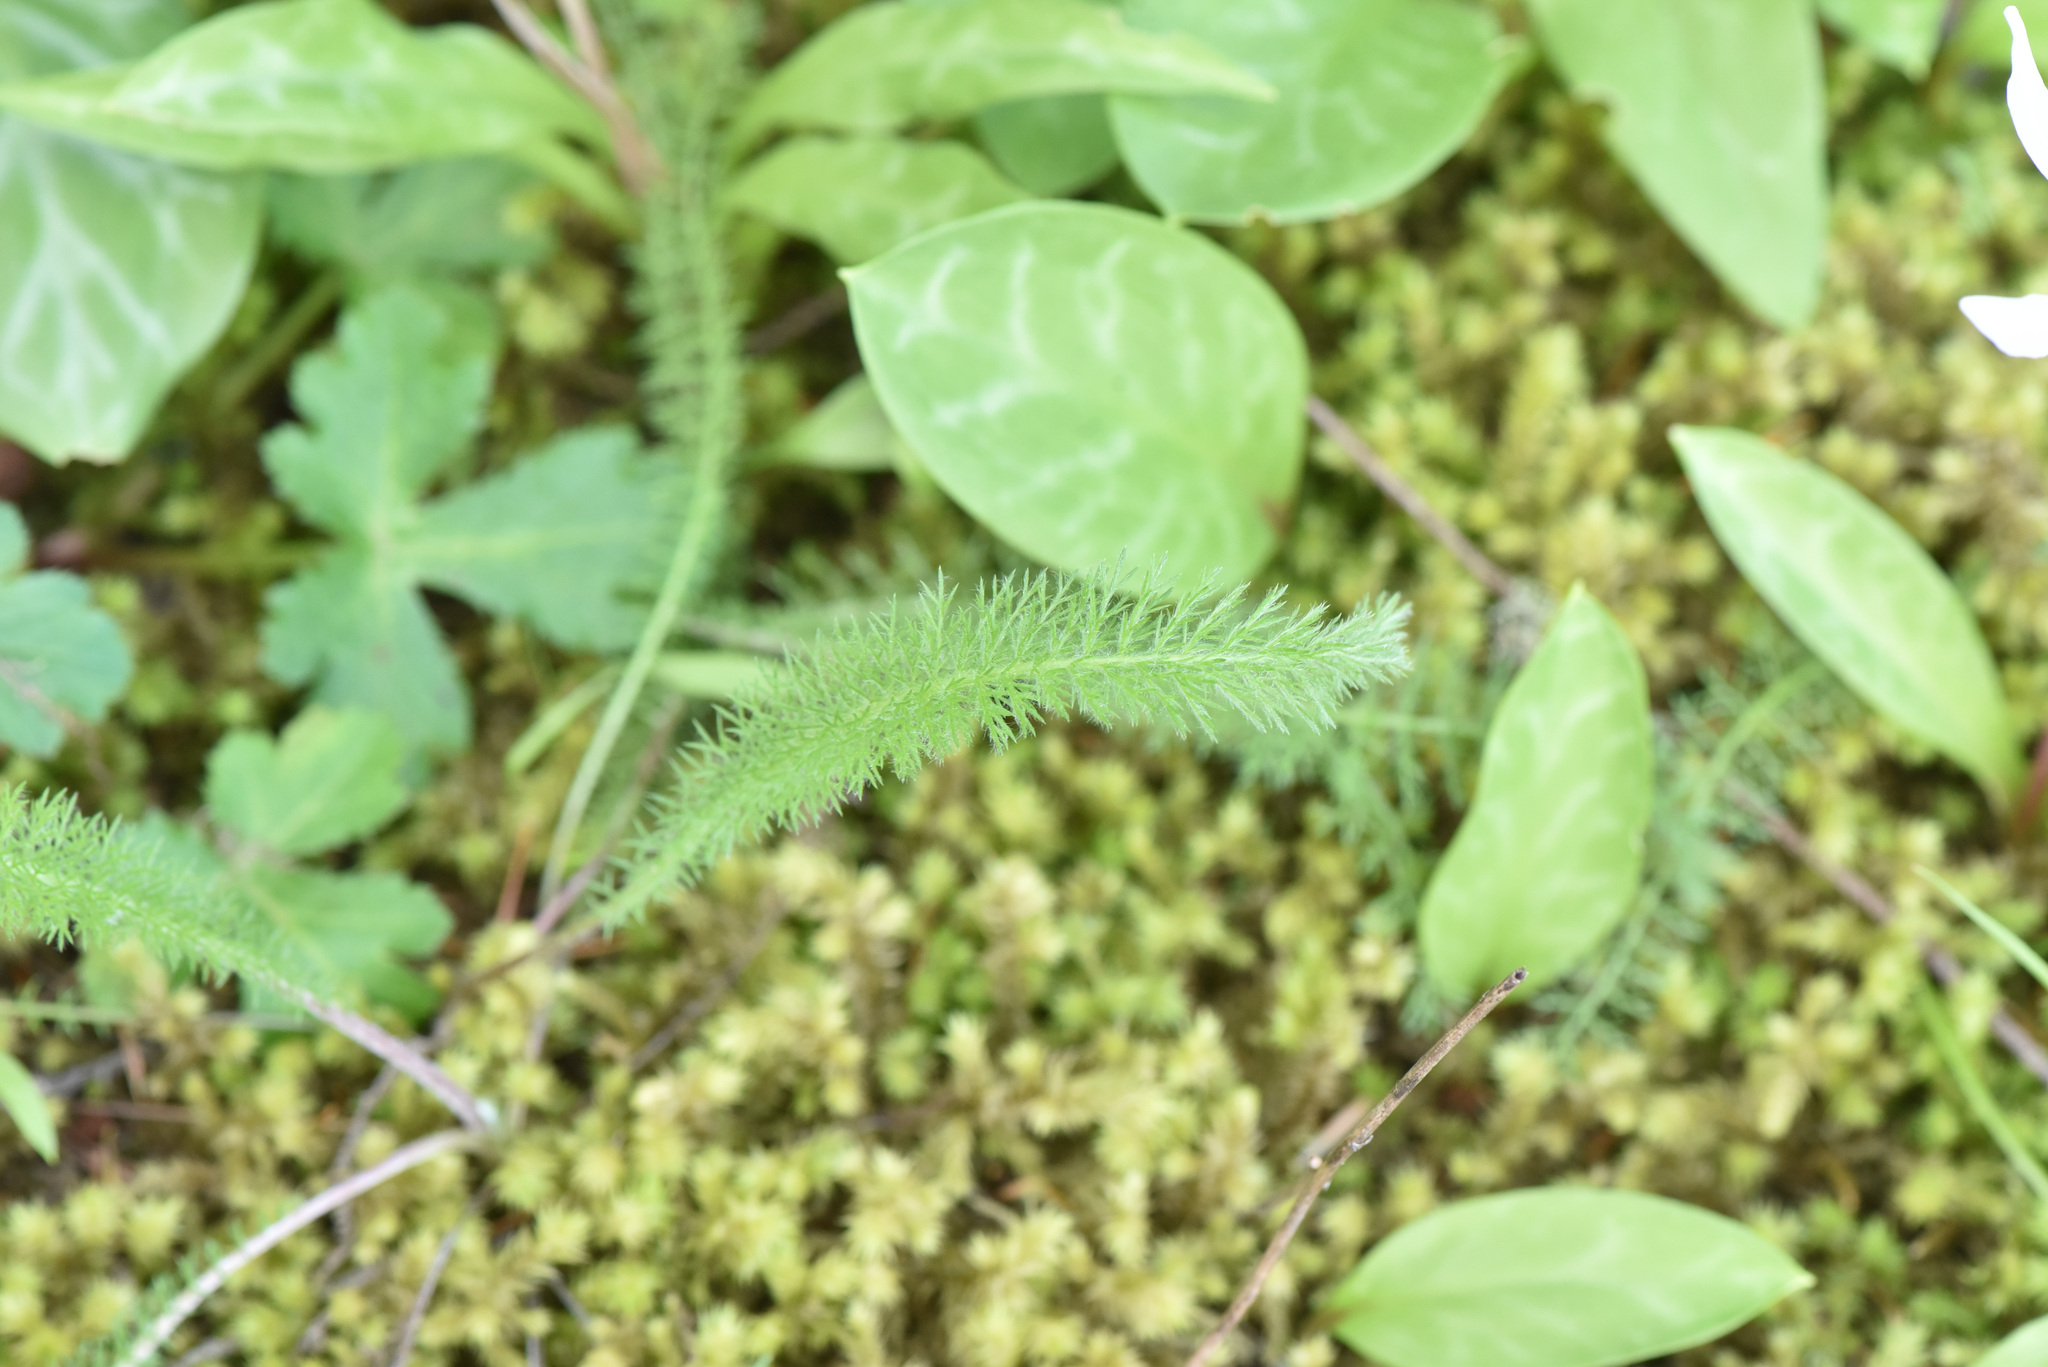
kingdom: Plantae
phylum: Tracheophyta
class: Magnoliopsida
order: Asterales
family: Asteraceae
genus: Achillea
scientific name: Achillea millefolium
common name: Yarrow
